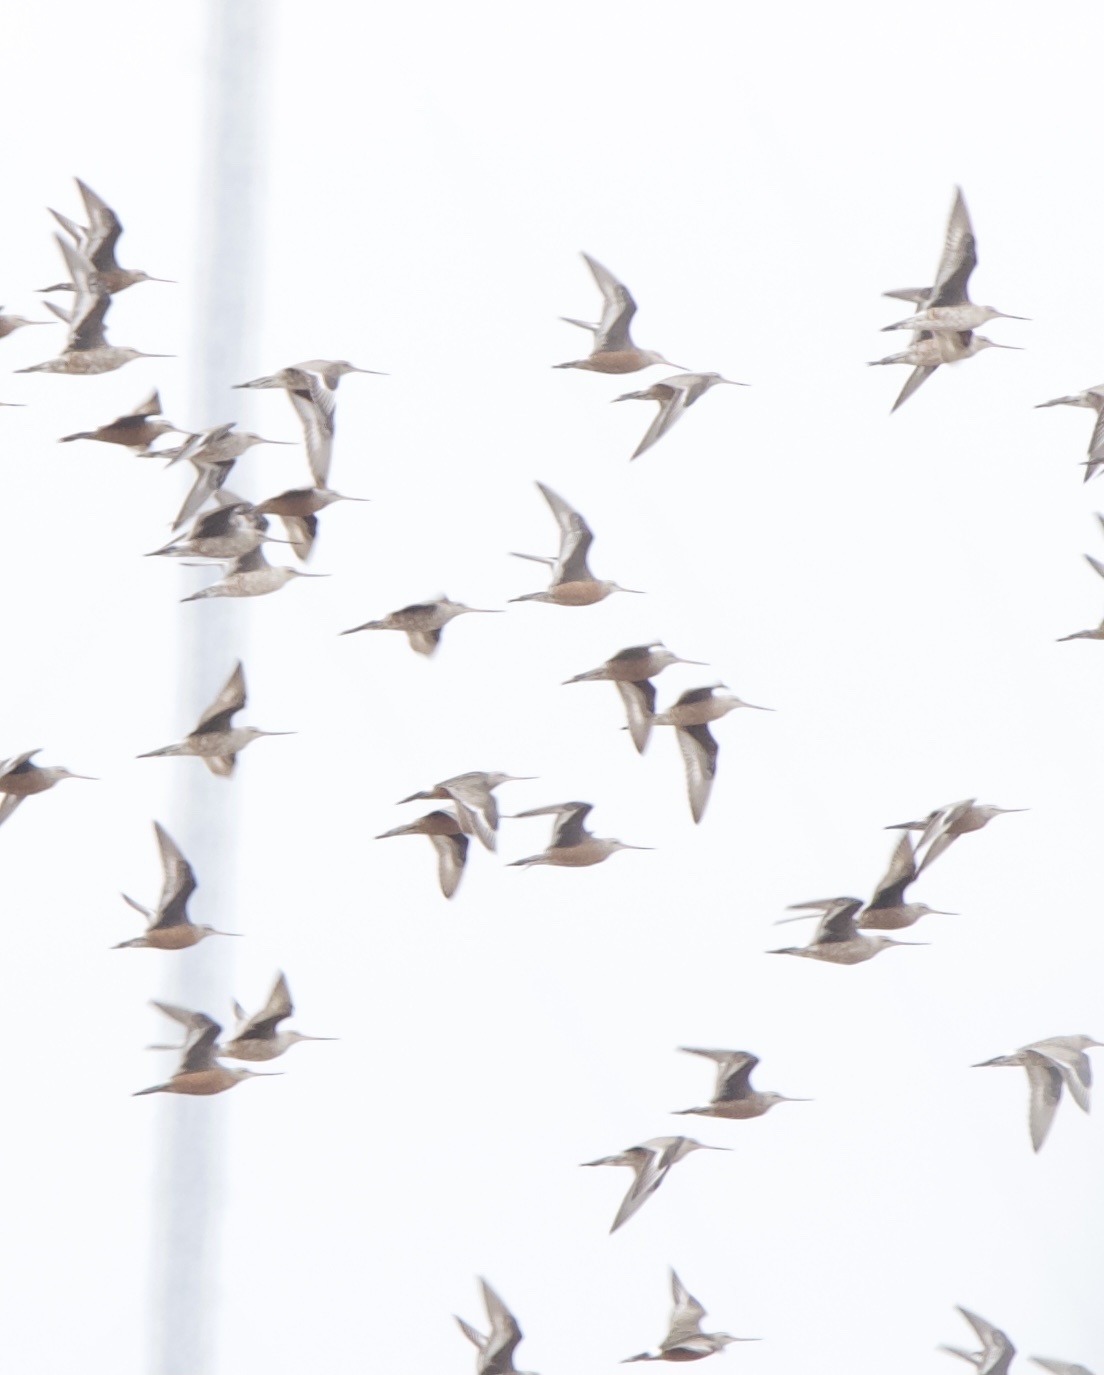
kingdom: Animalia
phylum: Chordata
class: Aves
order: Charadriiformes
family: Scolopacidae
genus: Limosa
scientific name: Limosa haemastica
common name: Hudsonian godwit
